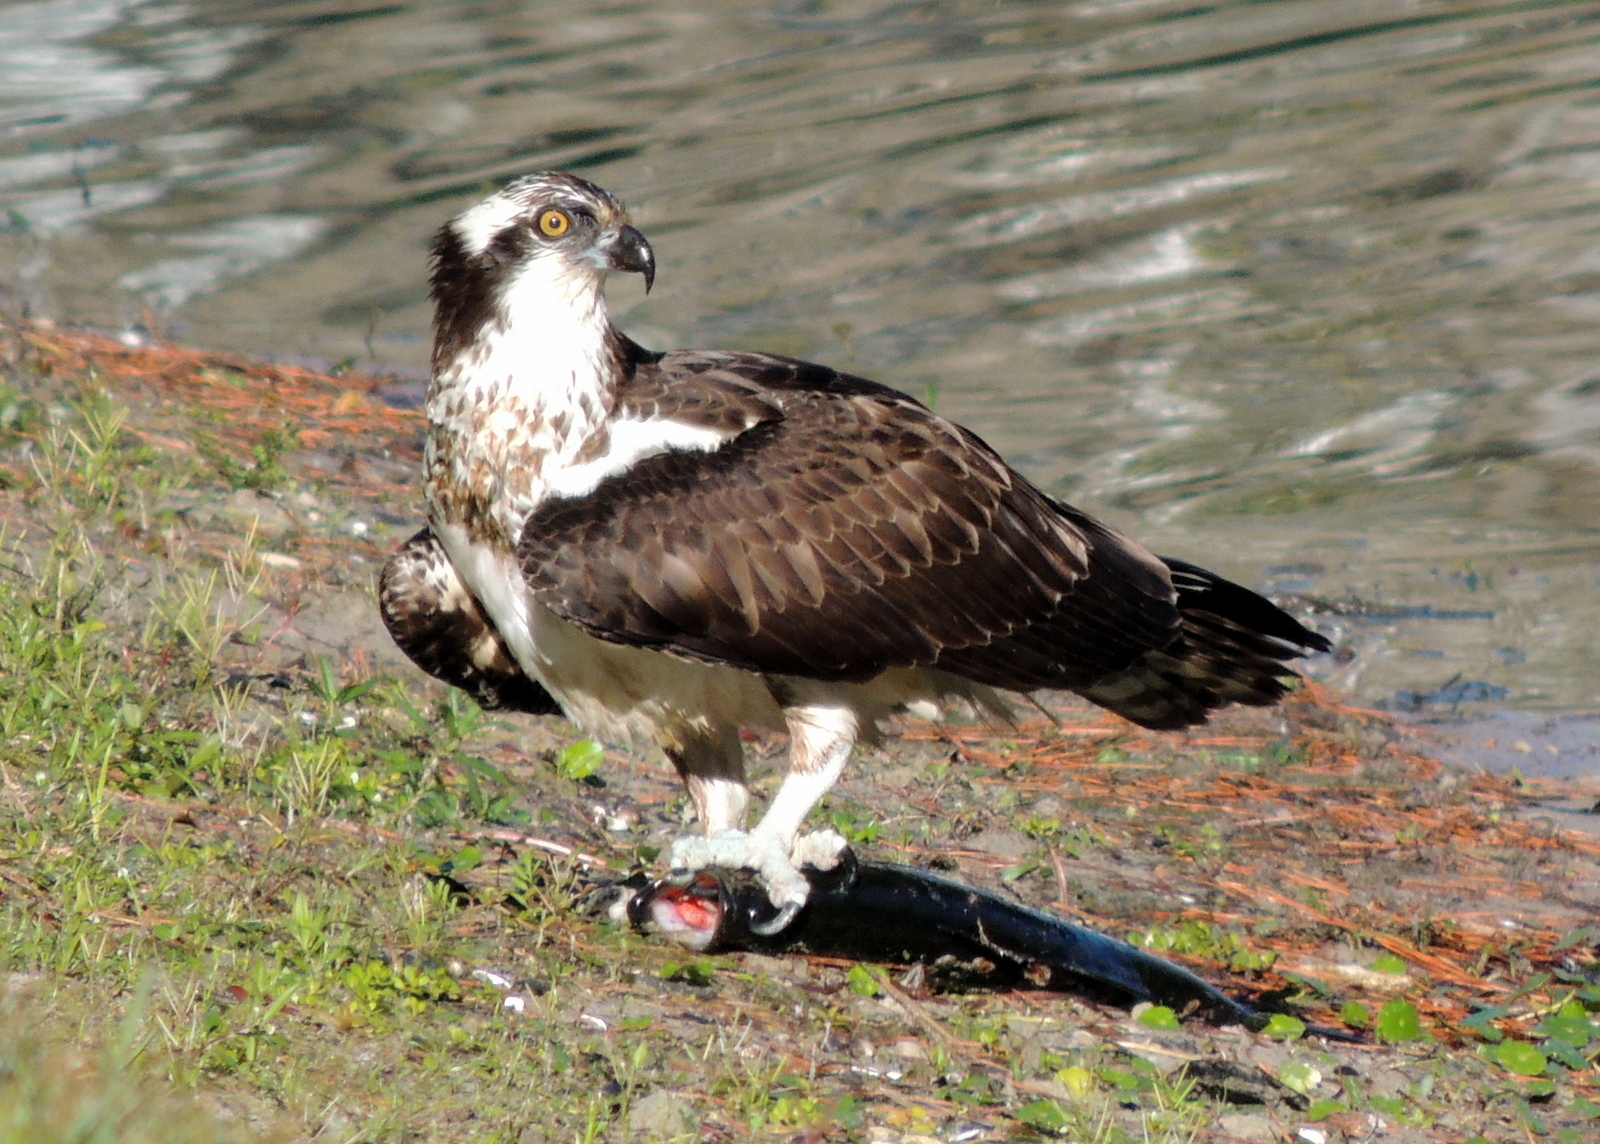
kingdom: Animalia
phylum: Chordata
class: Aves
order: Accipitriformes
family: Pandionidae
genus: Pandion
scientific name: Pandion haliaetus
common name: Osprey
